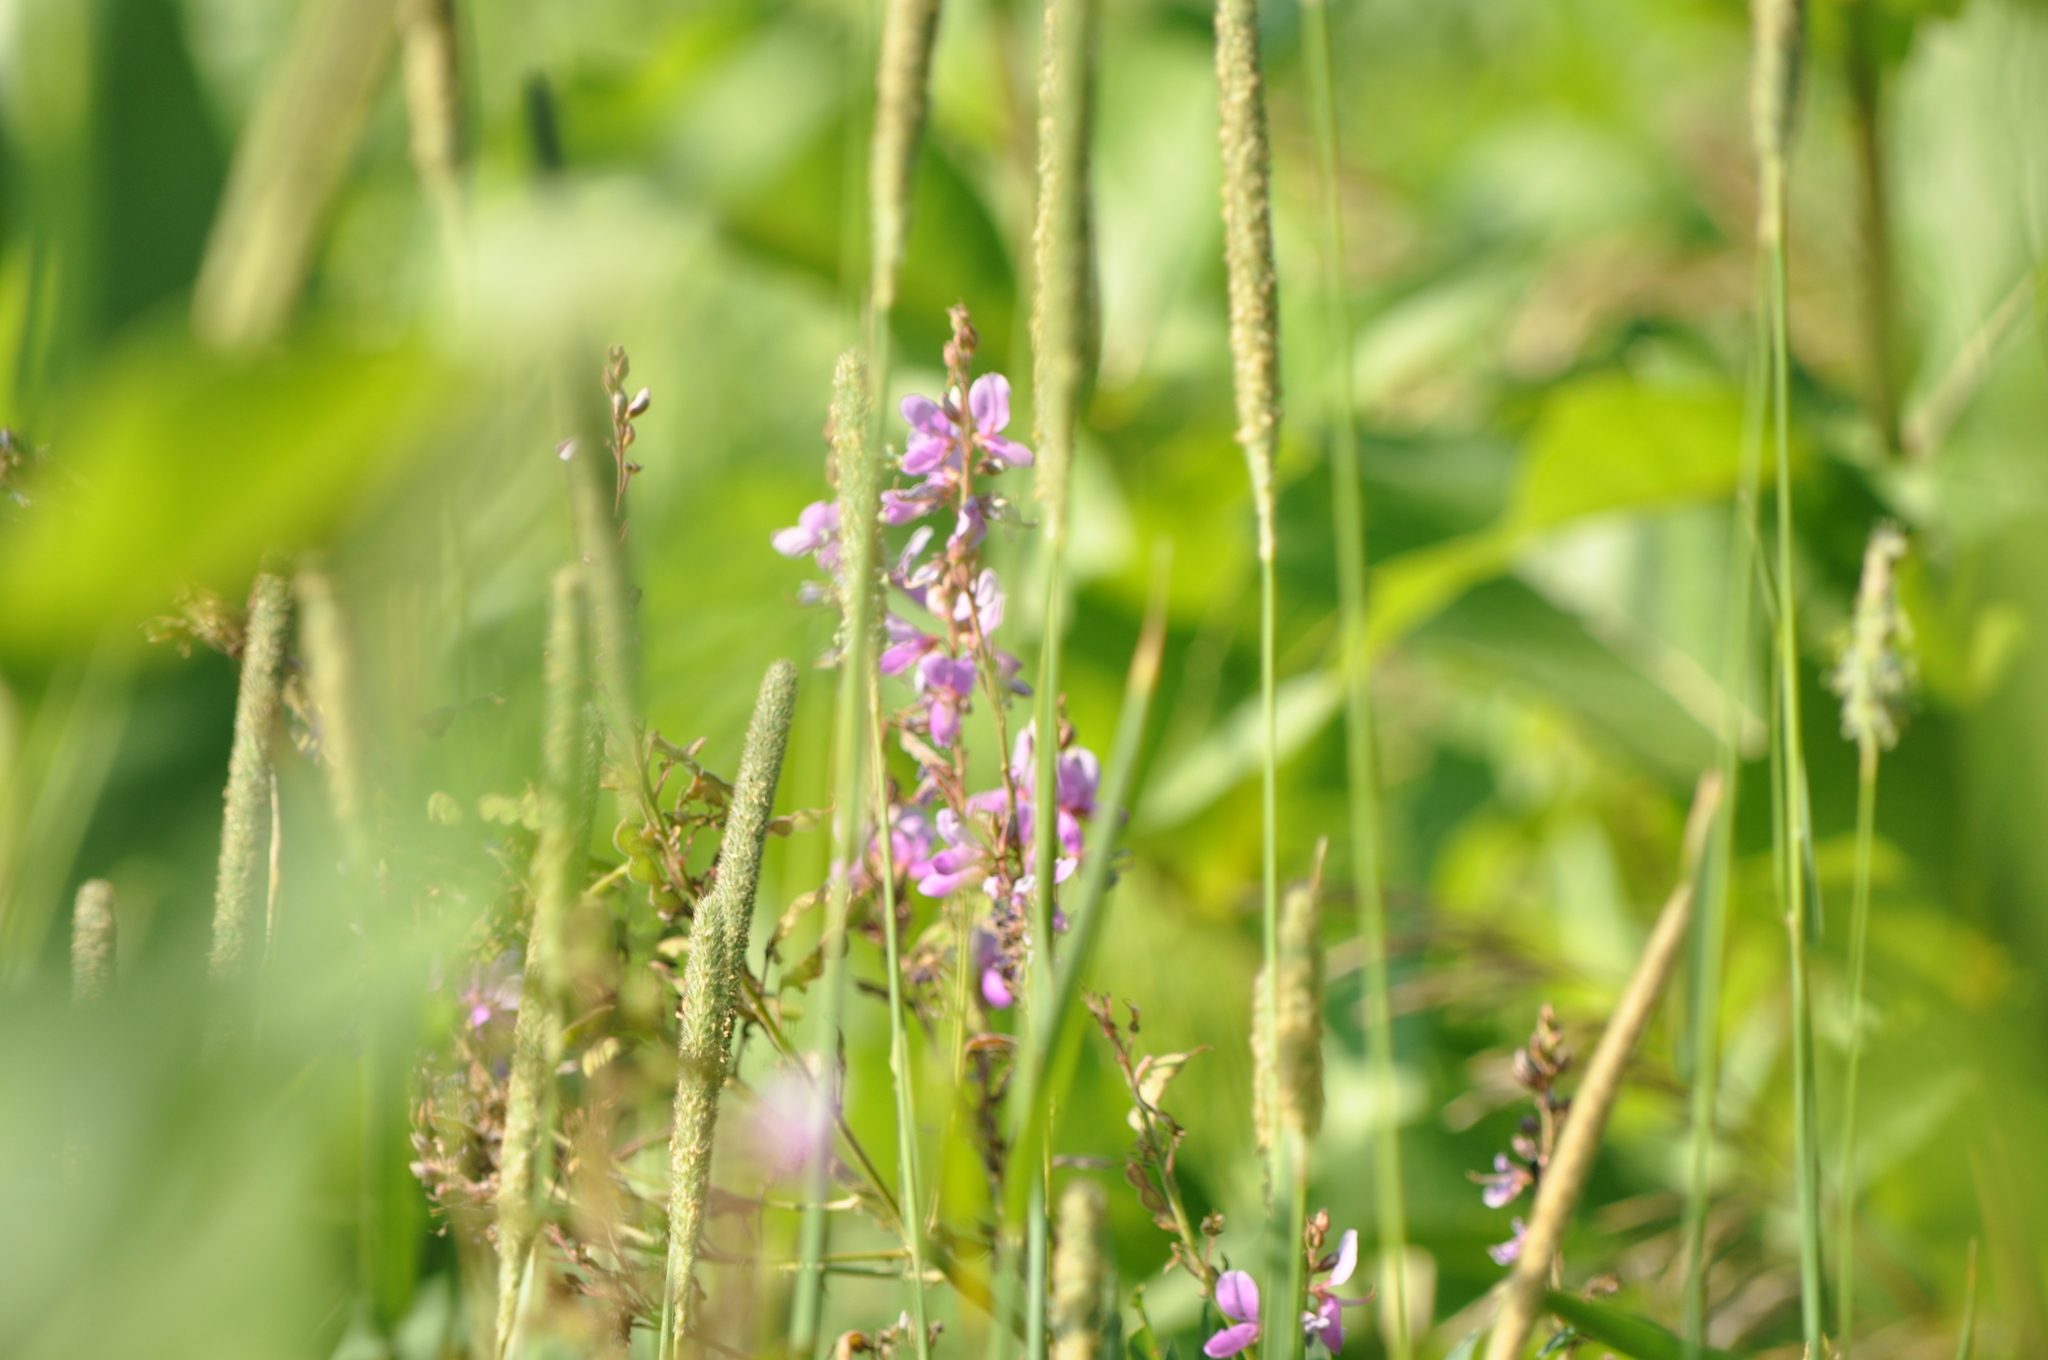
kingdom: Plantae
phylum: Tracheophyta
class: Magnoliopsida
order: Fabales
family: Fabaceae
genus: Desmodium
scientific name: Desmodium canadense
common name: Canada tick-trefoil
